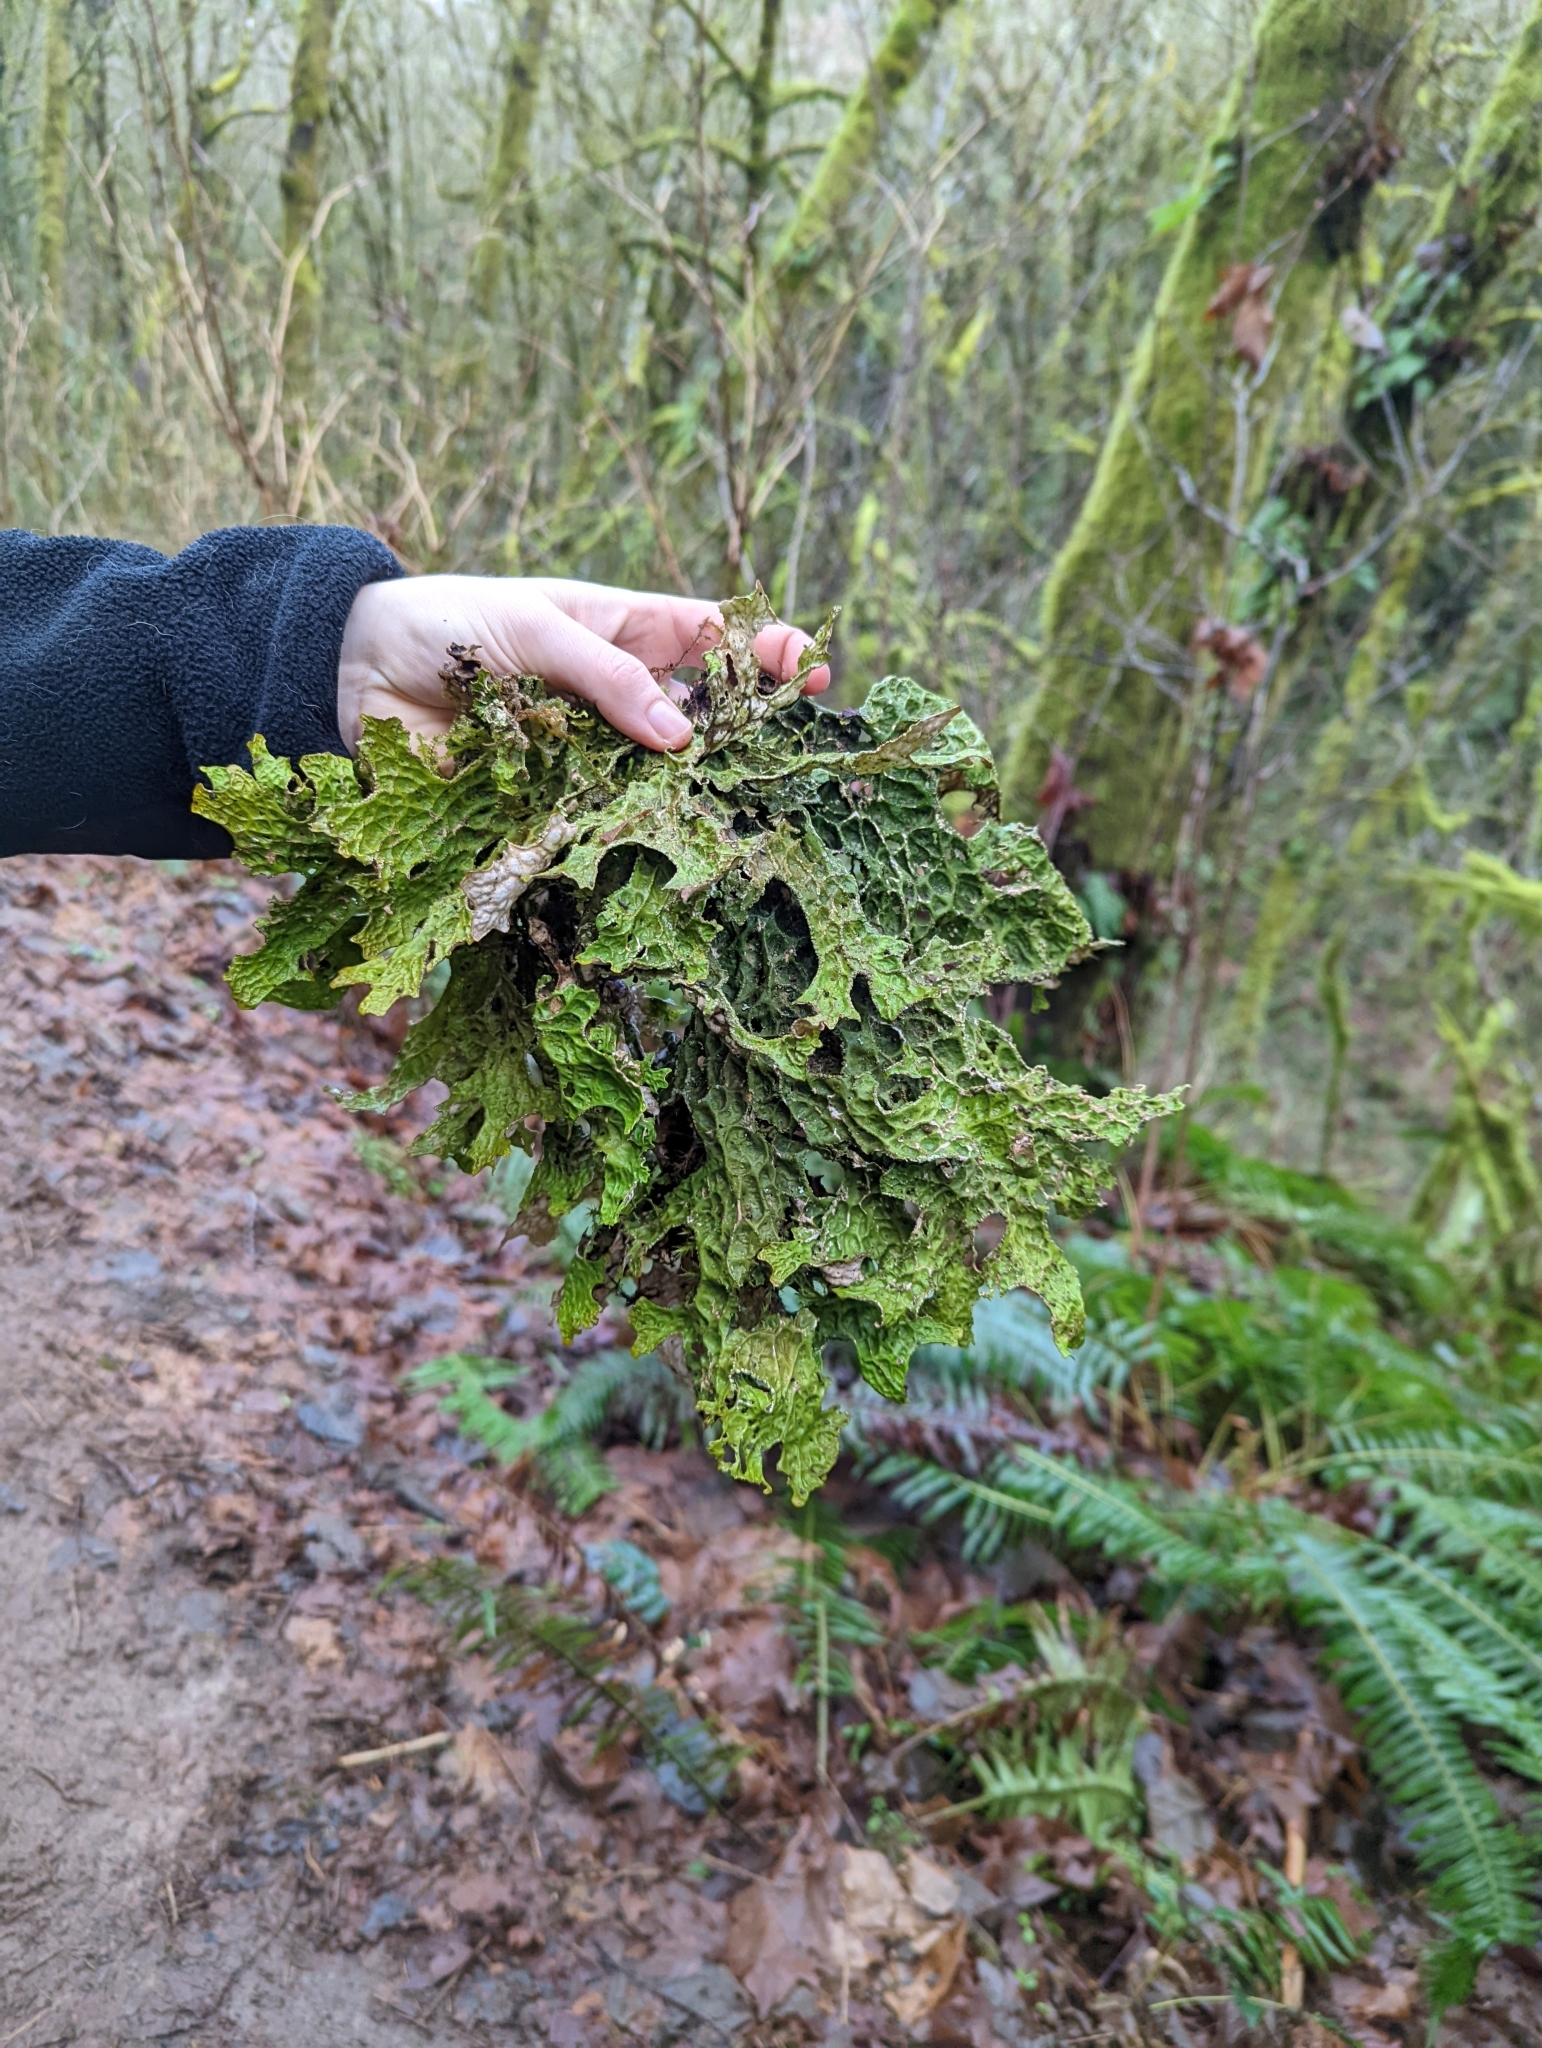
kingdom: Fungi
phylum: Ascomycota
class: Lecanoromycetes
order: Peltigerales
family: Lobariaceae
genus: Lobaria
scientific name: Lobaria pulmonaria
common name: Lungwort
